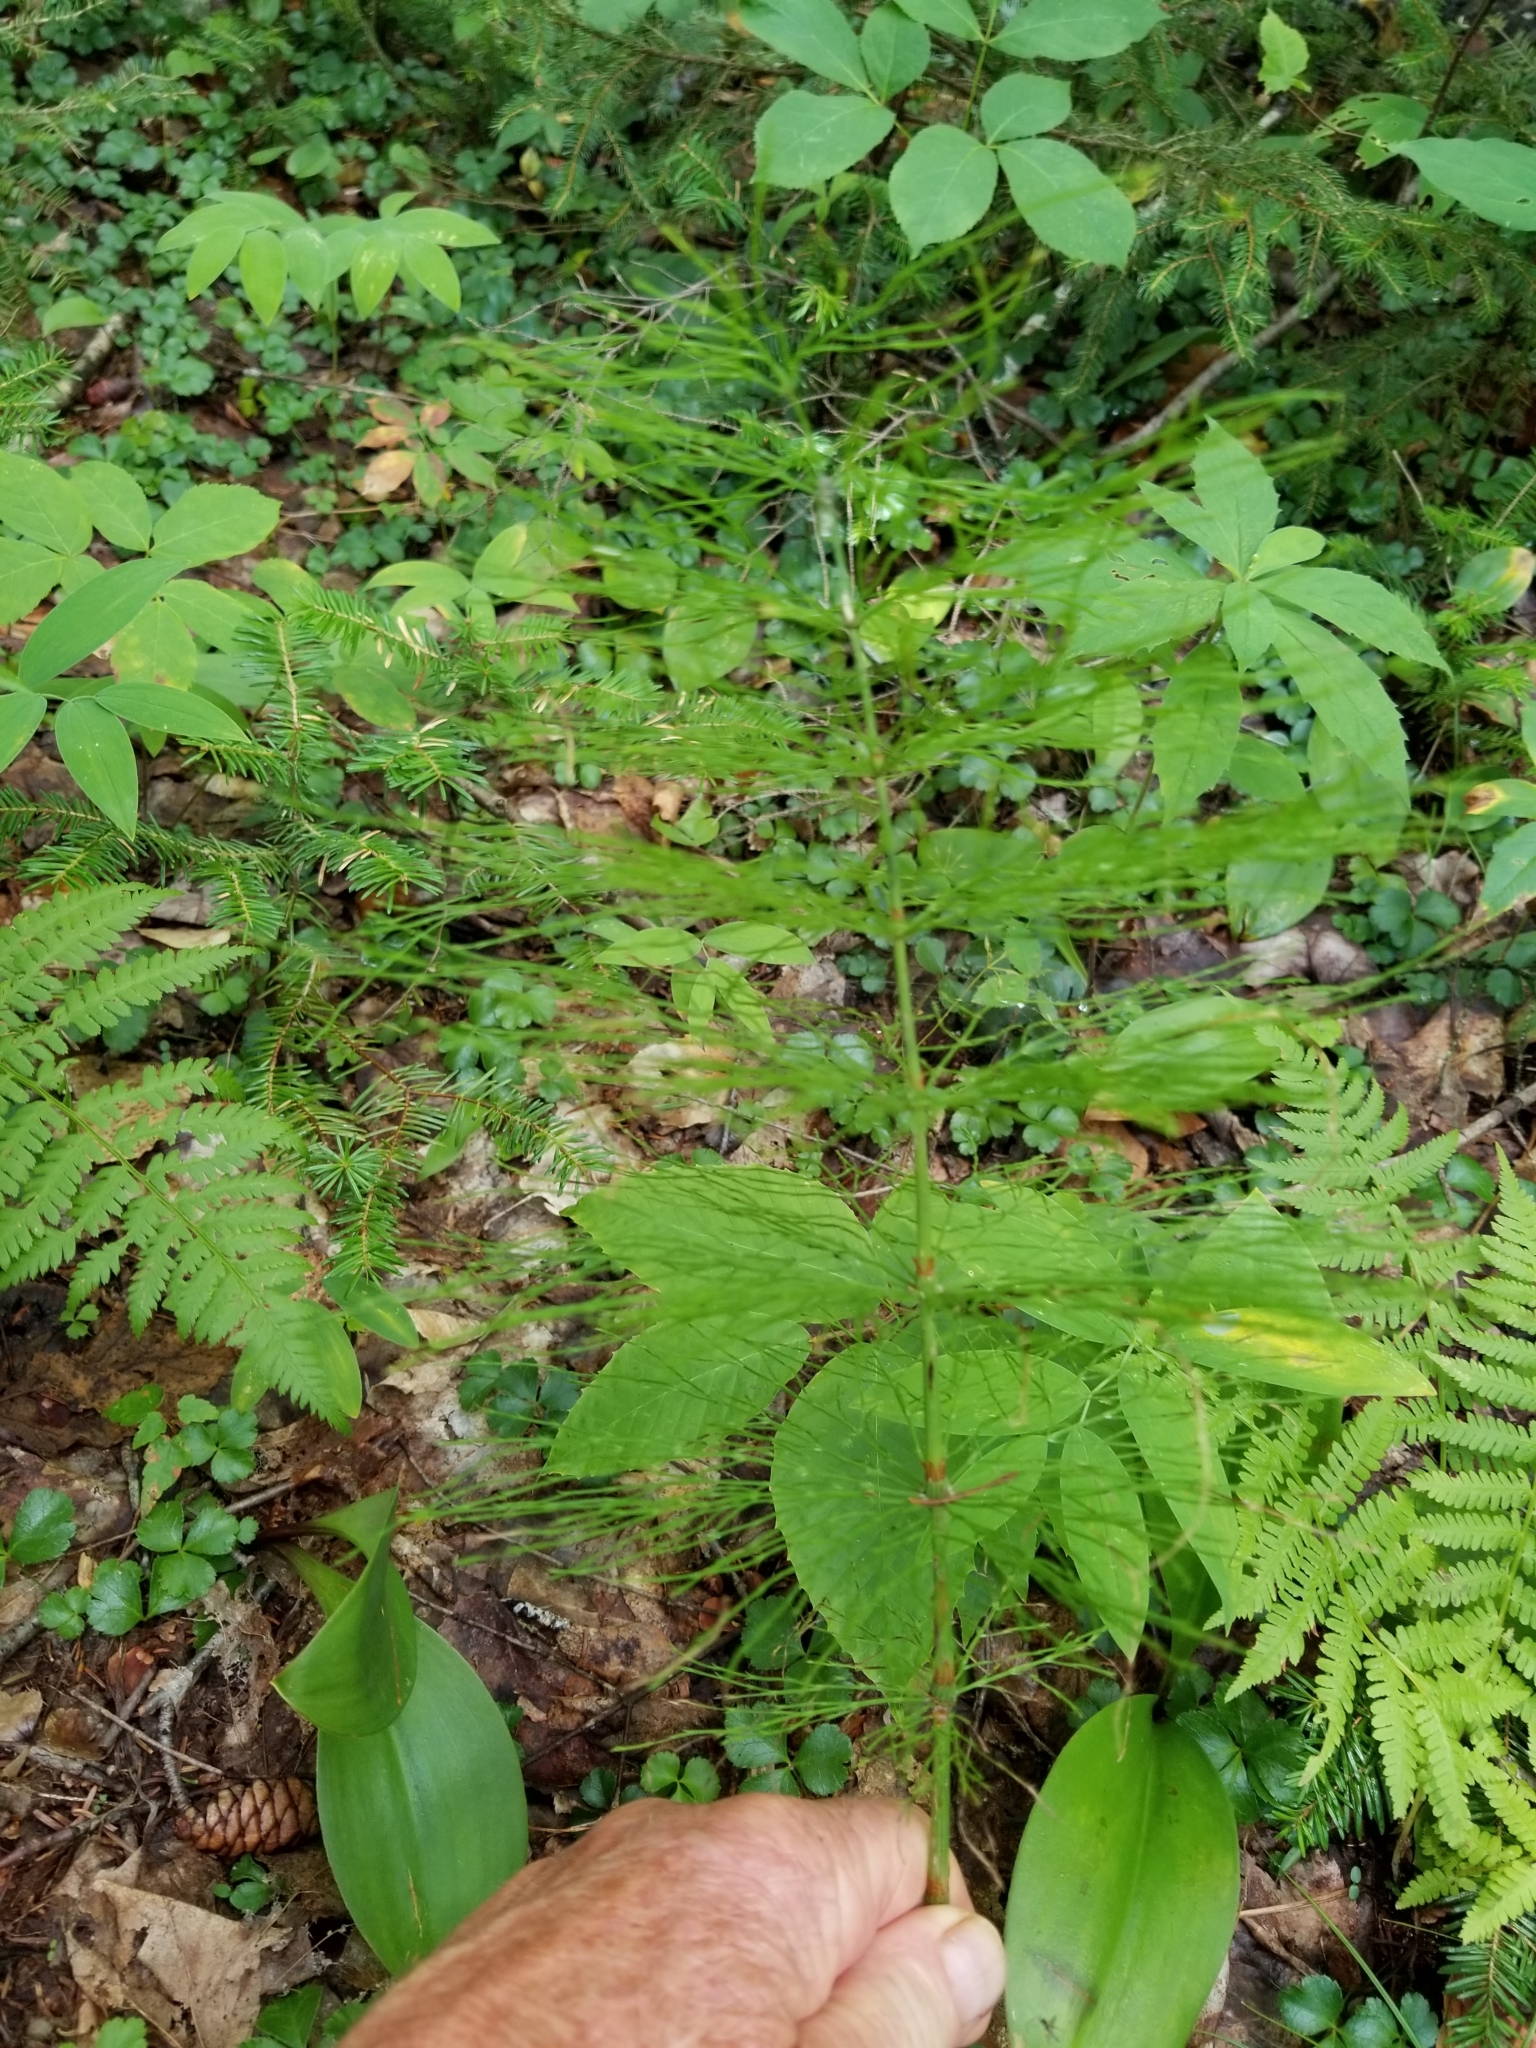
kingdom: Plantae
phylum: Tracheophyta
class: Polypodiopsida
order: Equisetales
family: Equisetaceae
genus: Equisetum
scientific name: Equisetum sylvaticum
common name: Wood horsetail
